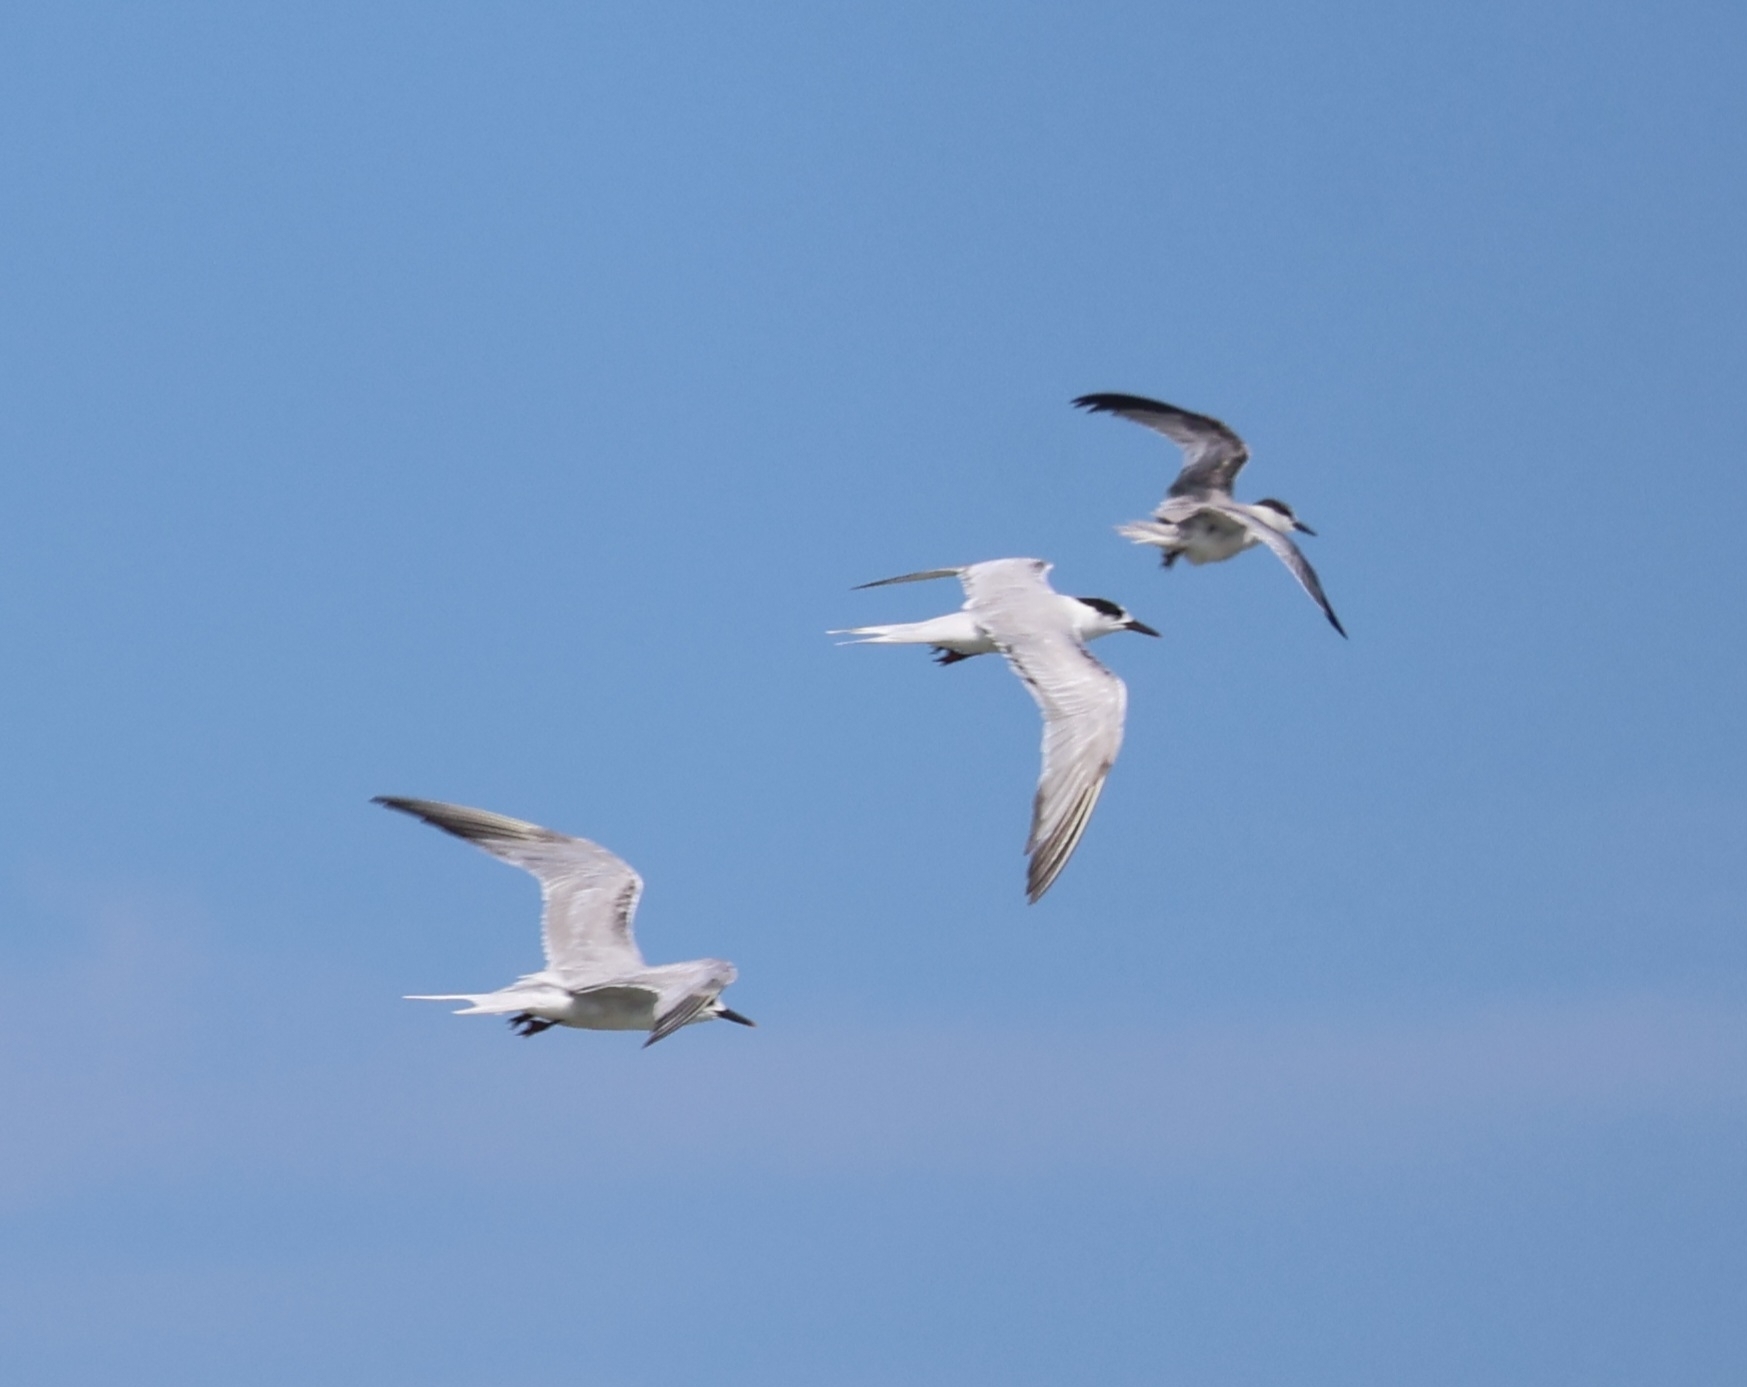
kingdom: Animalia
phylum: Chordata
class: Aves
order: Charadriiformes
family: Laridae
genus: Thalasseus
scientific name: Thalasseus sandvicensis
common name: Sandwich tern
